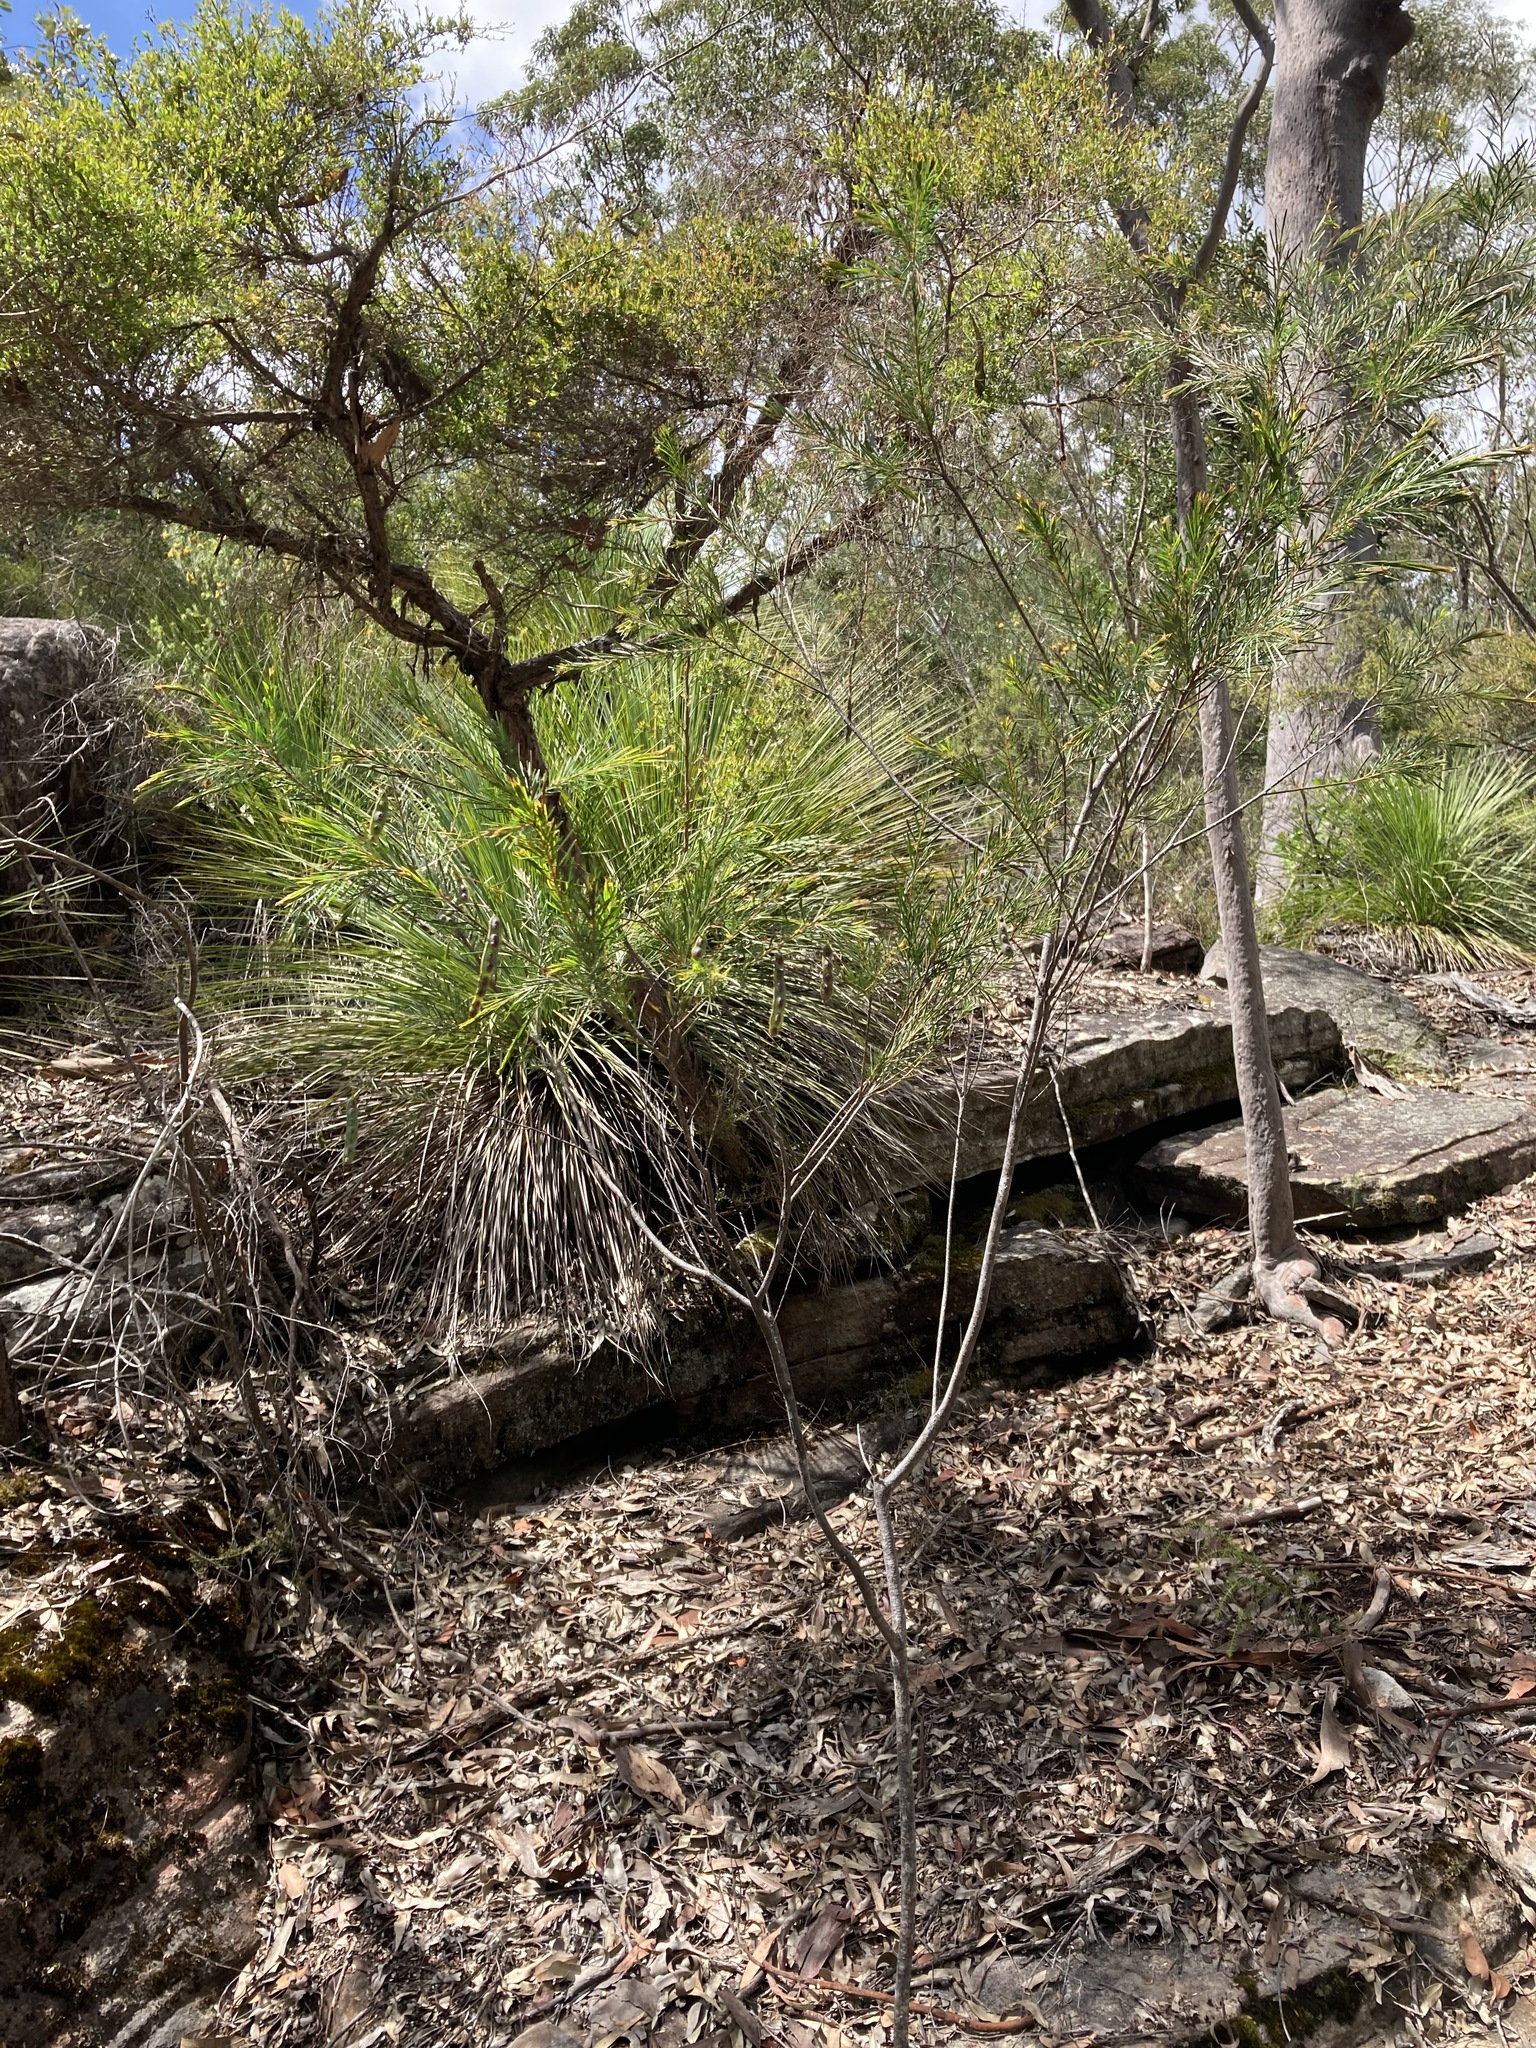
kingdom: Plantae
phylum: Tracheophyta
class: Magnoliopsida
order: Fabales
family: Fabaceae
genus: Acacia
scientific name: Acacia linifolia
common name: White wattle
